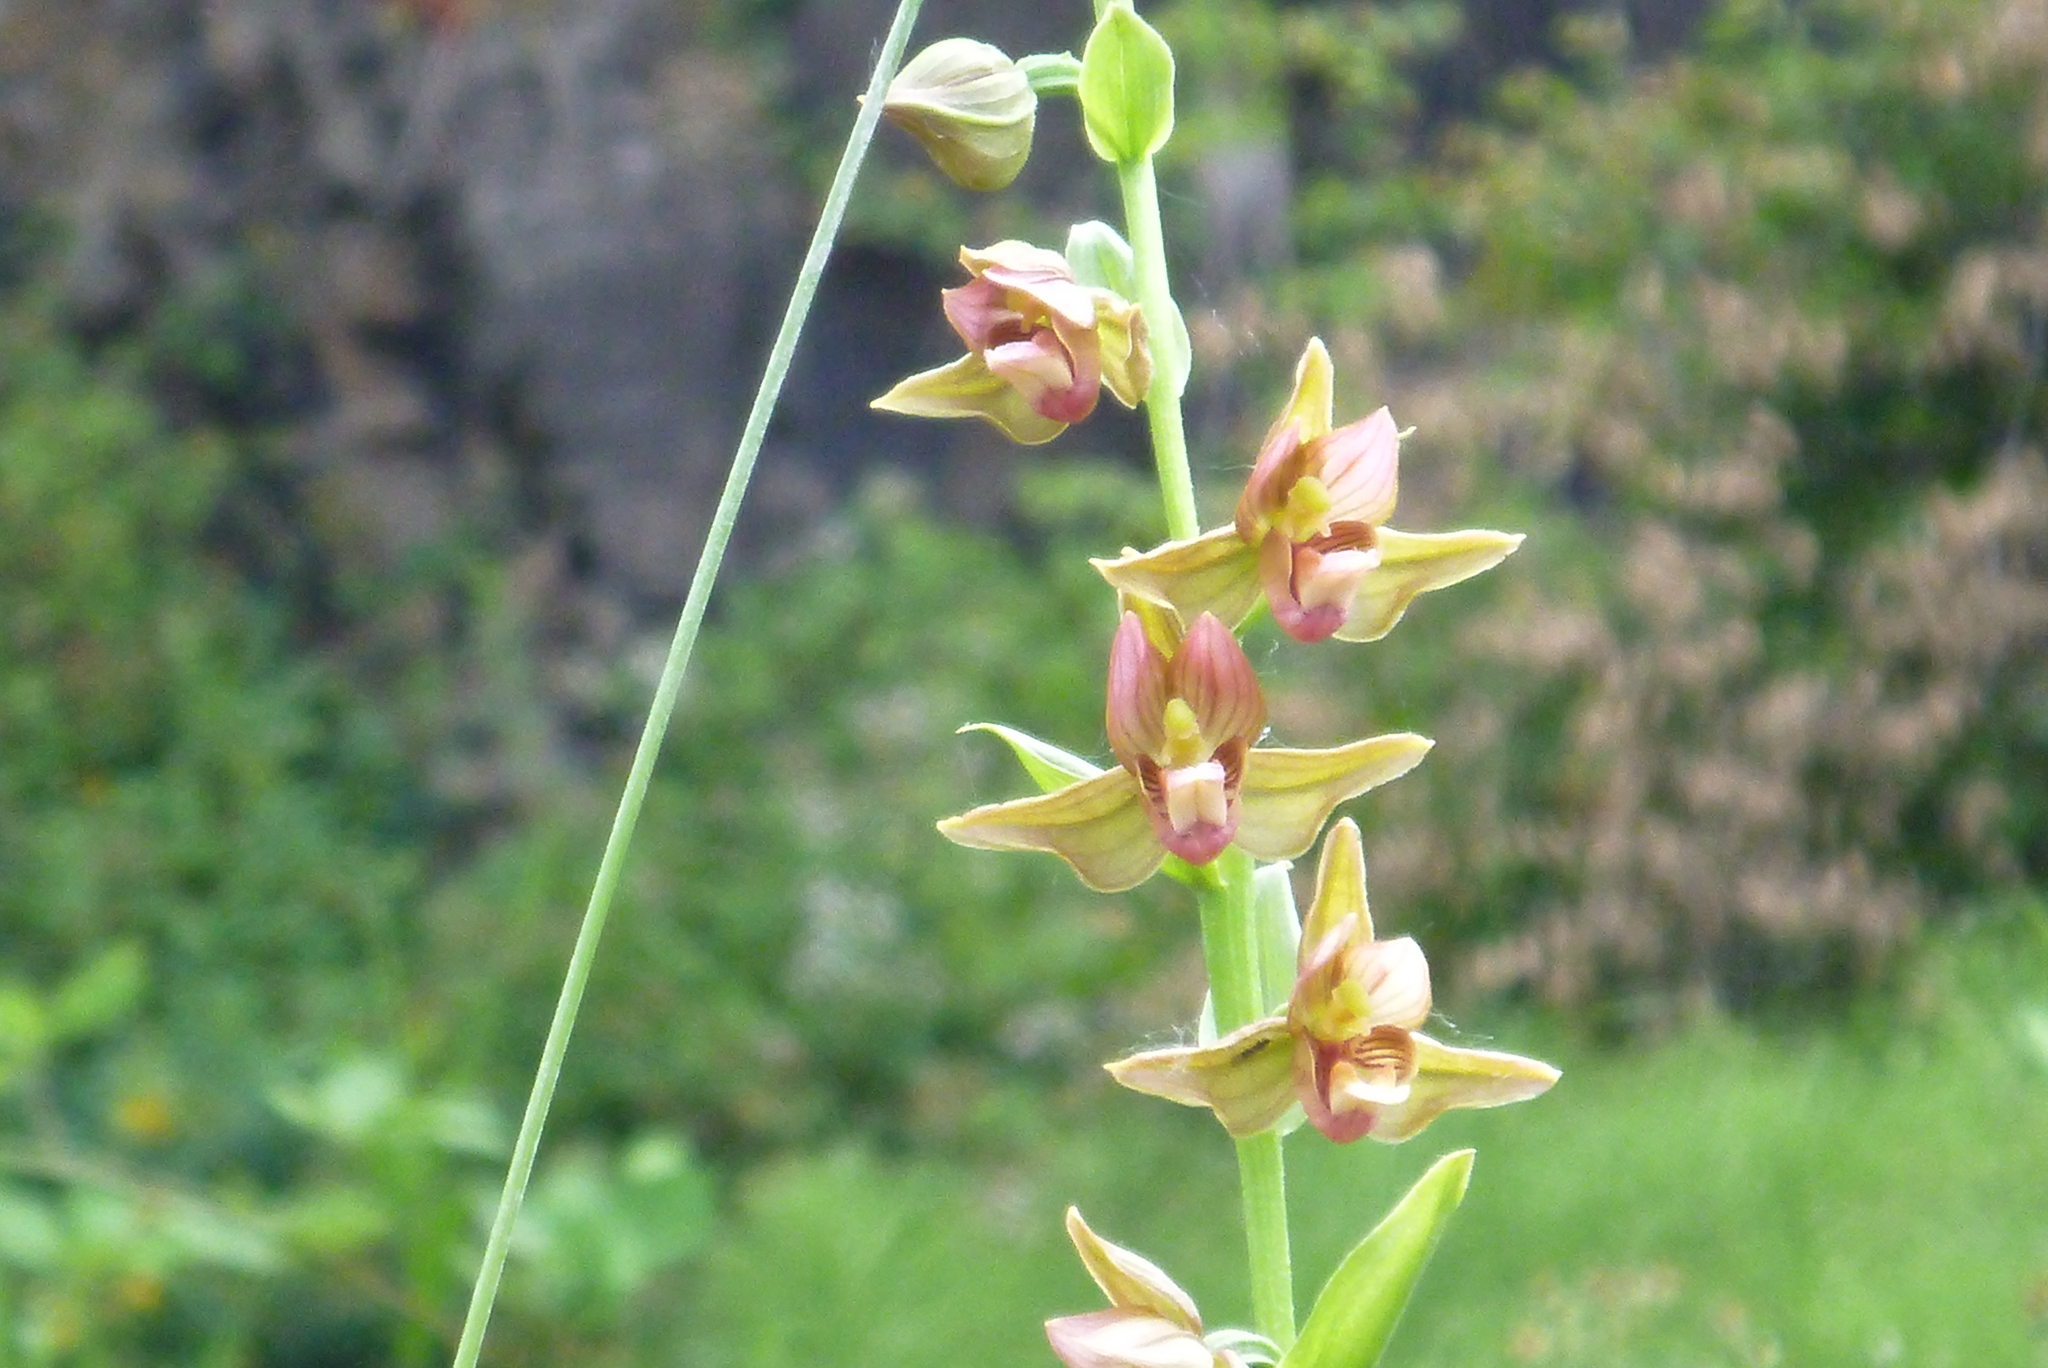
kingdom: Plantae
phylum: Tracheophyta
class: Liliopsida
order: Asparagales
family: Orchidaceae
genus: Epipactis
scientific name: Epipactis gigantea
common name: Chatterbox
